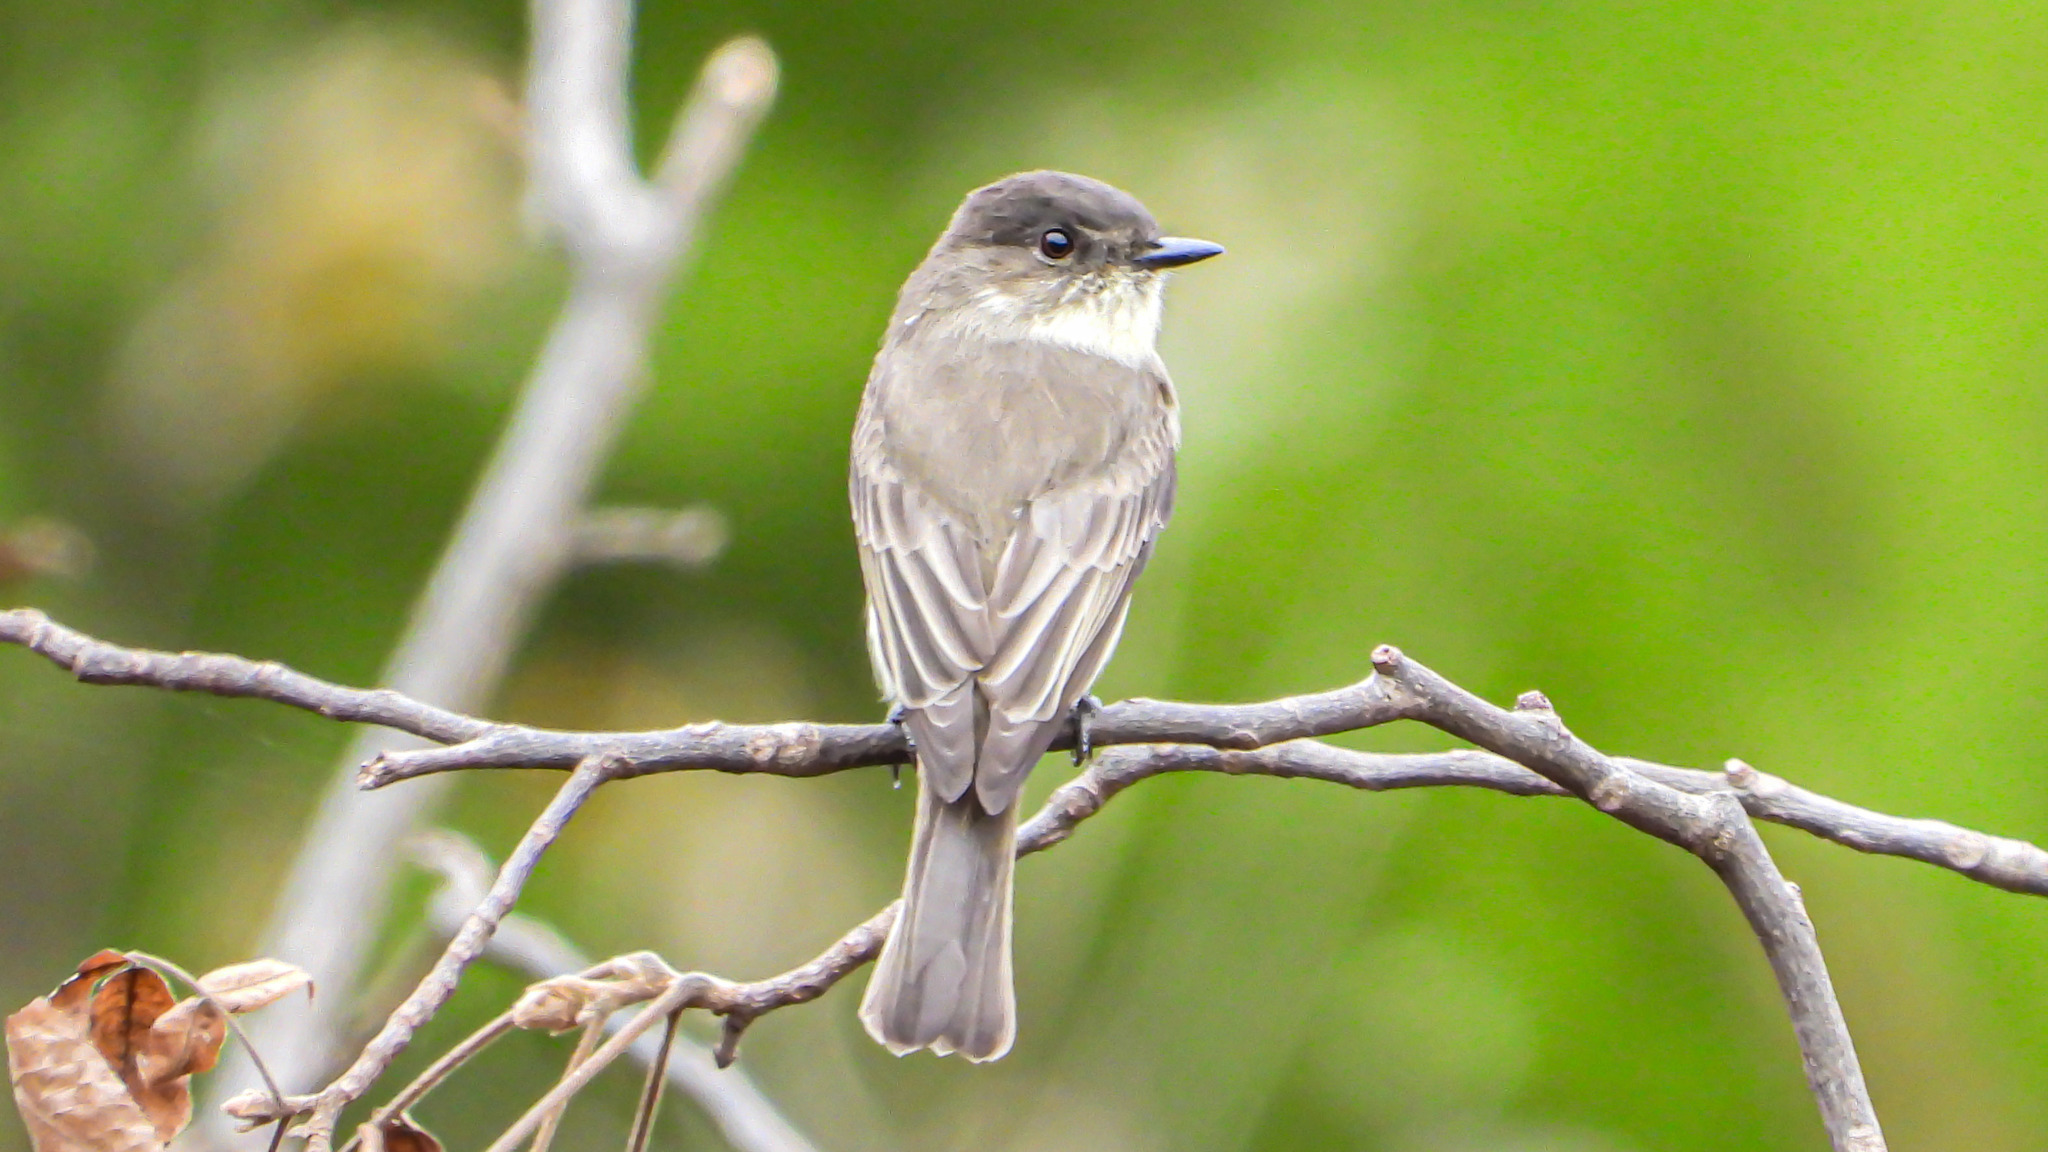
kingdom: Animalia
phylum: Chordata
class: Aves
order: Passeriformes
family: Tyrannidae
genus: Sayornis
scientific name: Sayornis phoebe
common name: Eastern phoebe
